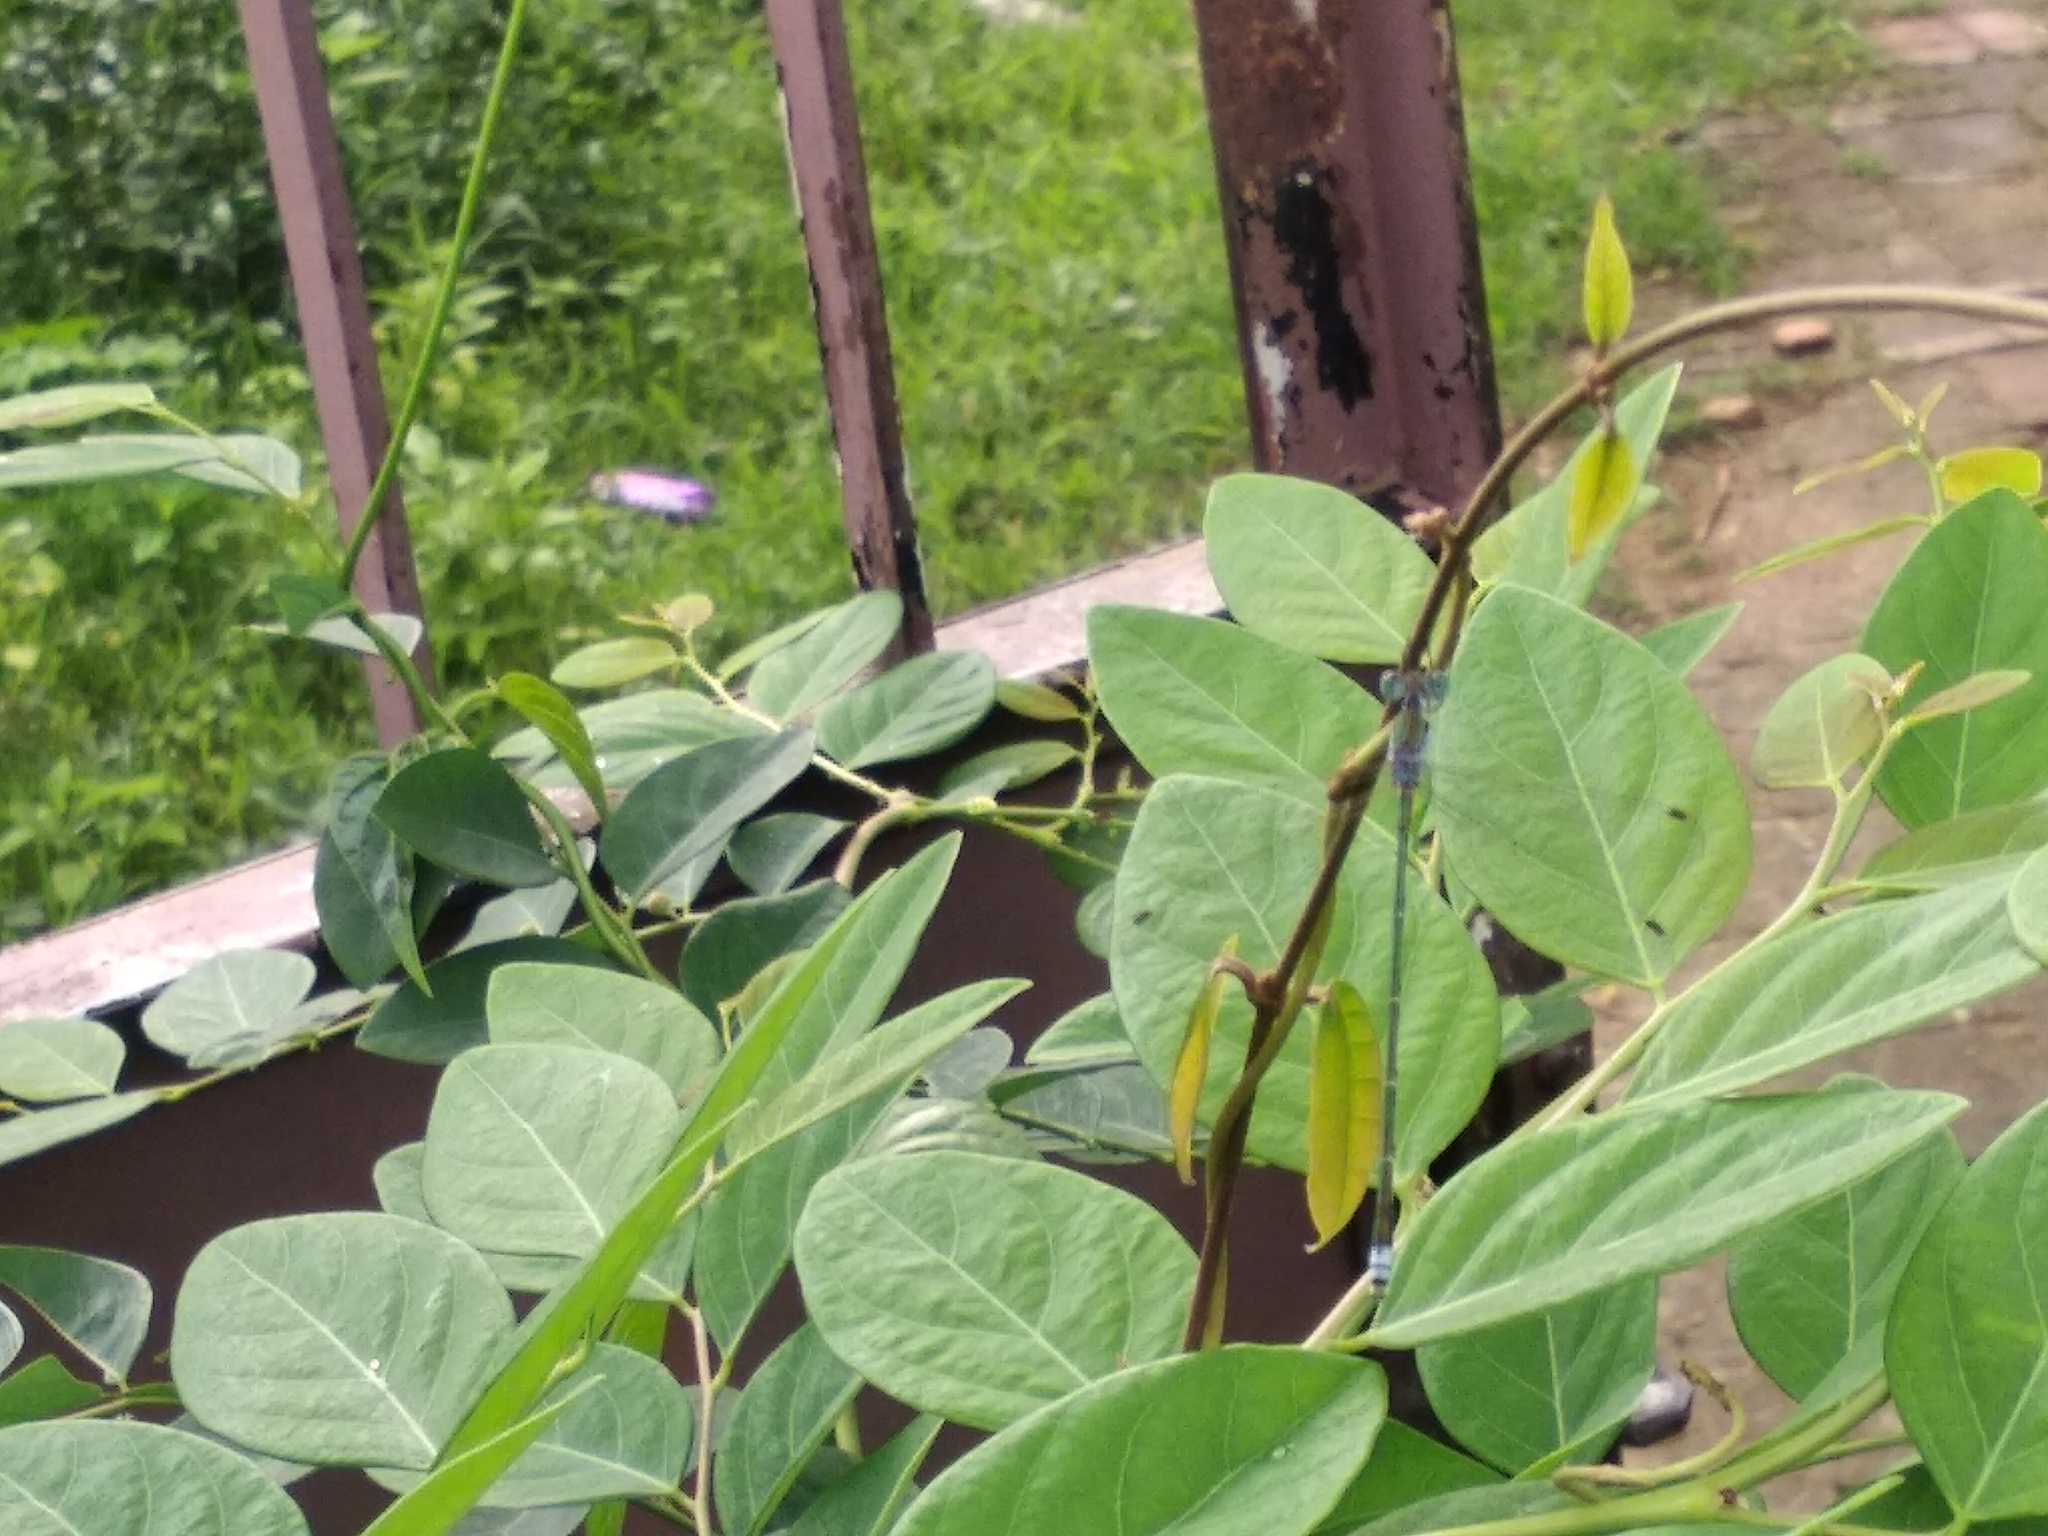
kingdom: Animalia
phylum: Arthropoda
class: Insecta
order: Odonata
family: Lestidae
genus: Lestes
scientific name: Lestes elatus
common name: Emerald spreadwing
